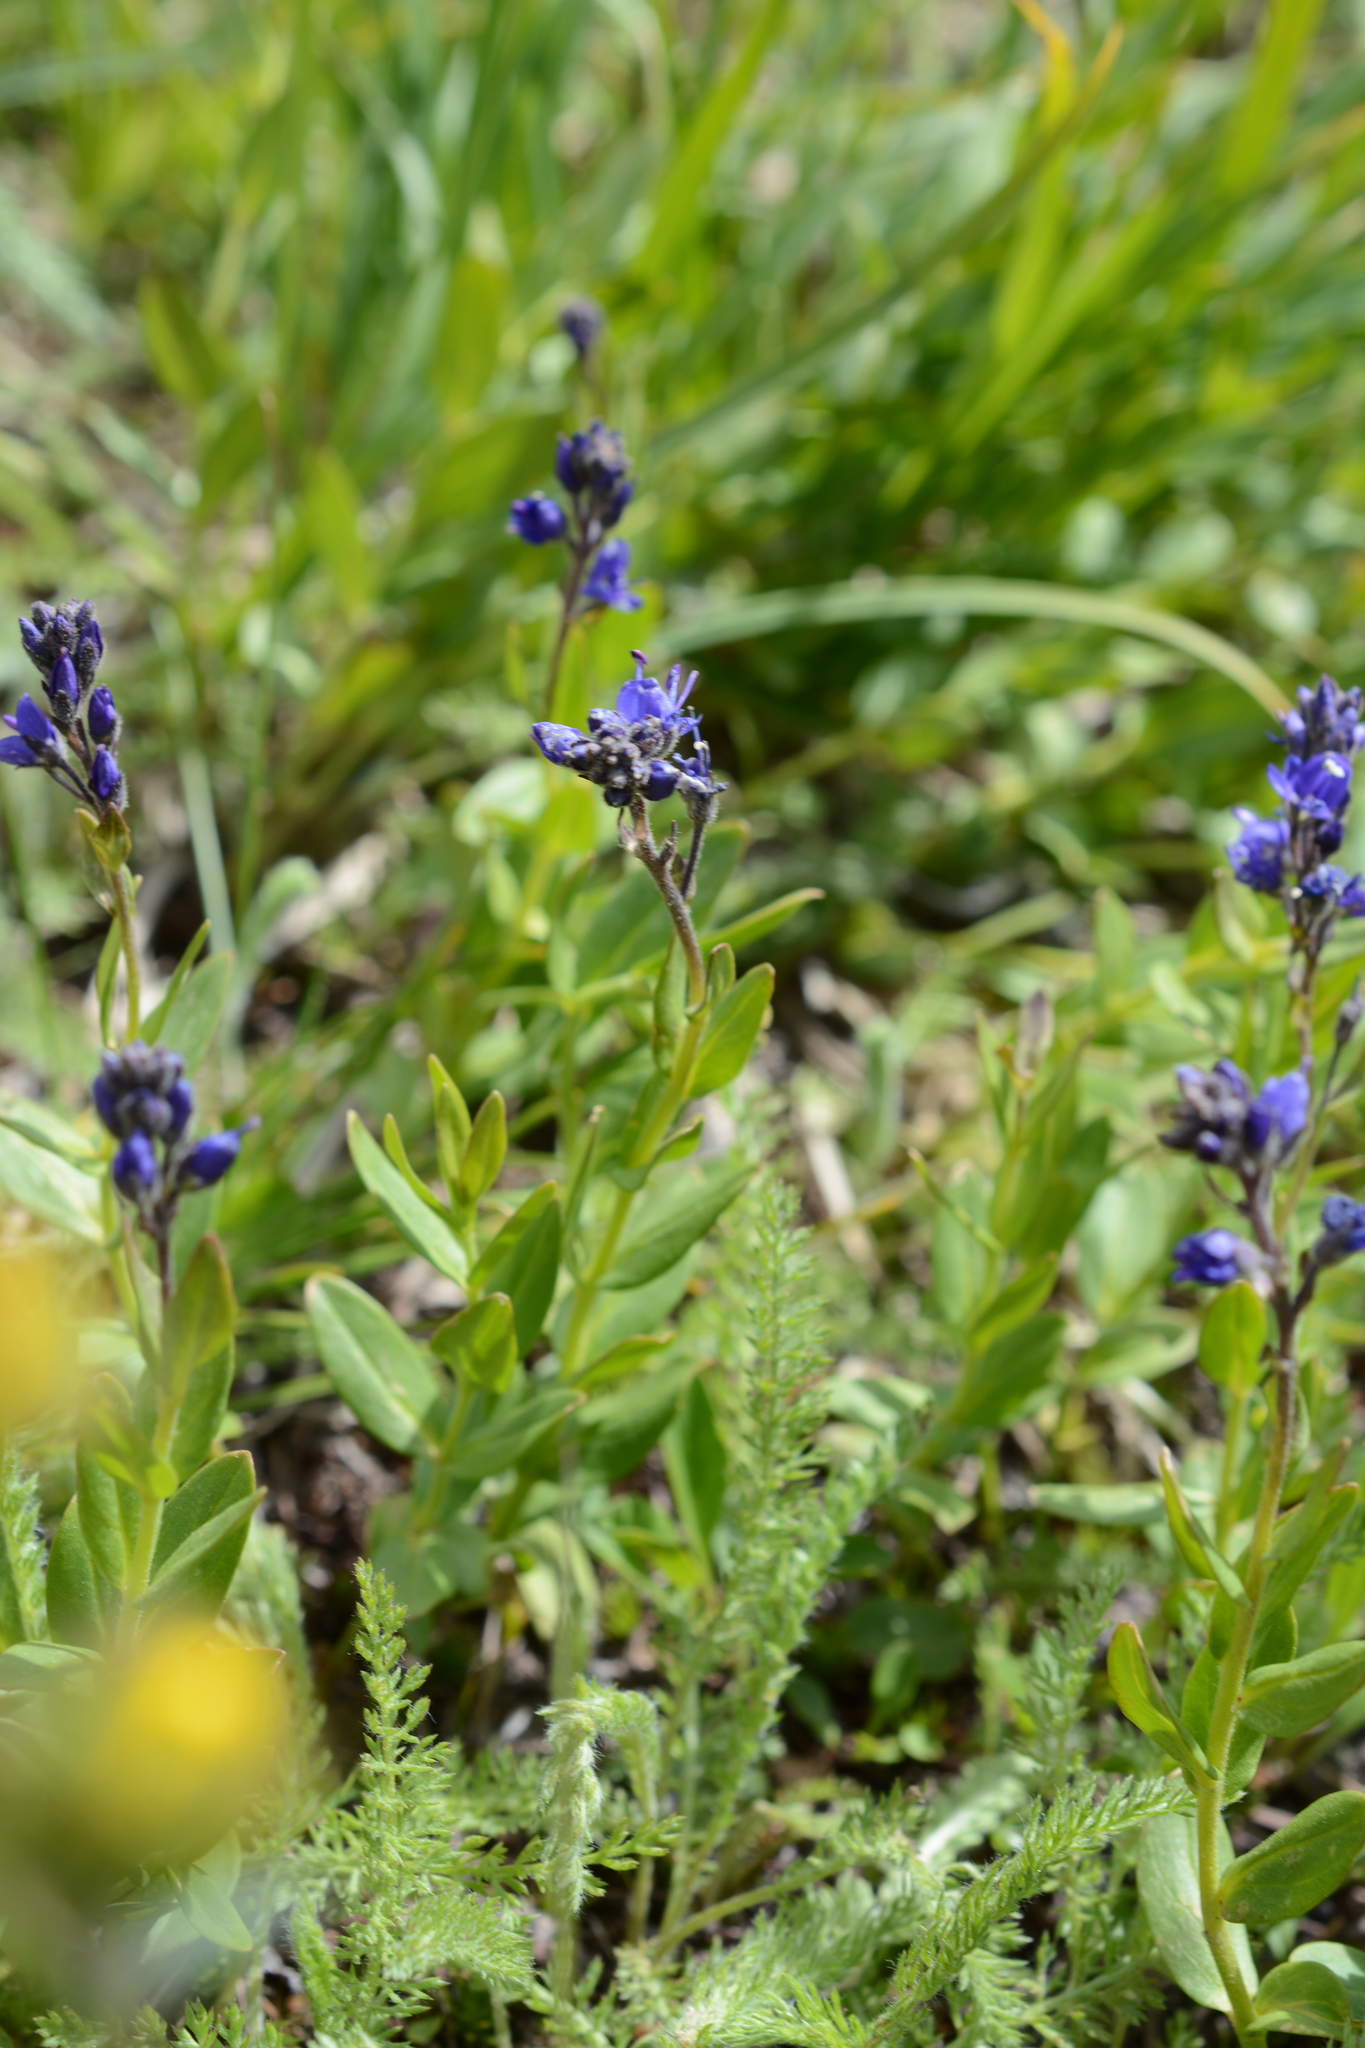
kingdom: Plantae
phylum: Tracheophyta
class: Magnoliopsida
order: Lamiales
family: Plantaginaceae
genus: Veronica
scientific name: Veronica cusickii
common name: Cusick's speedwell
